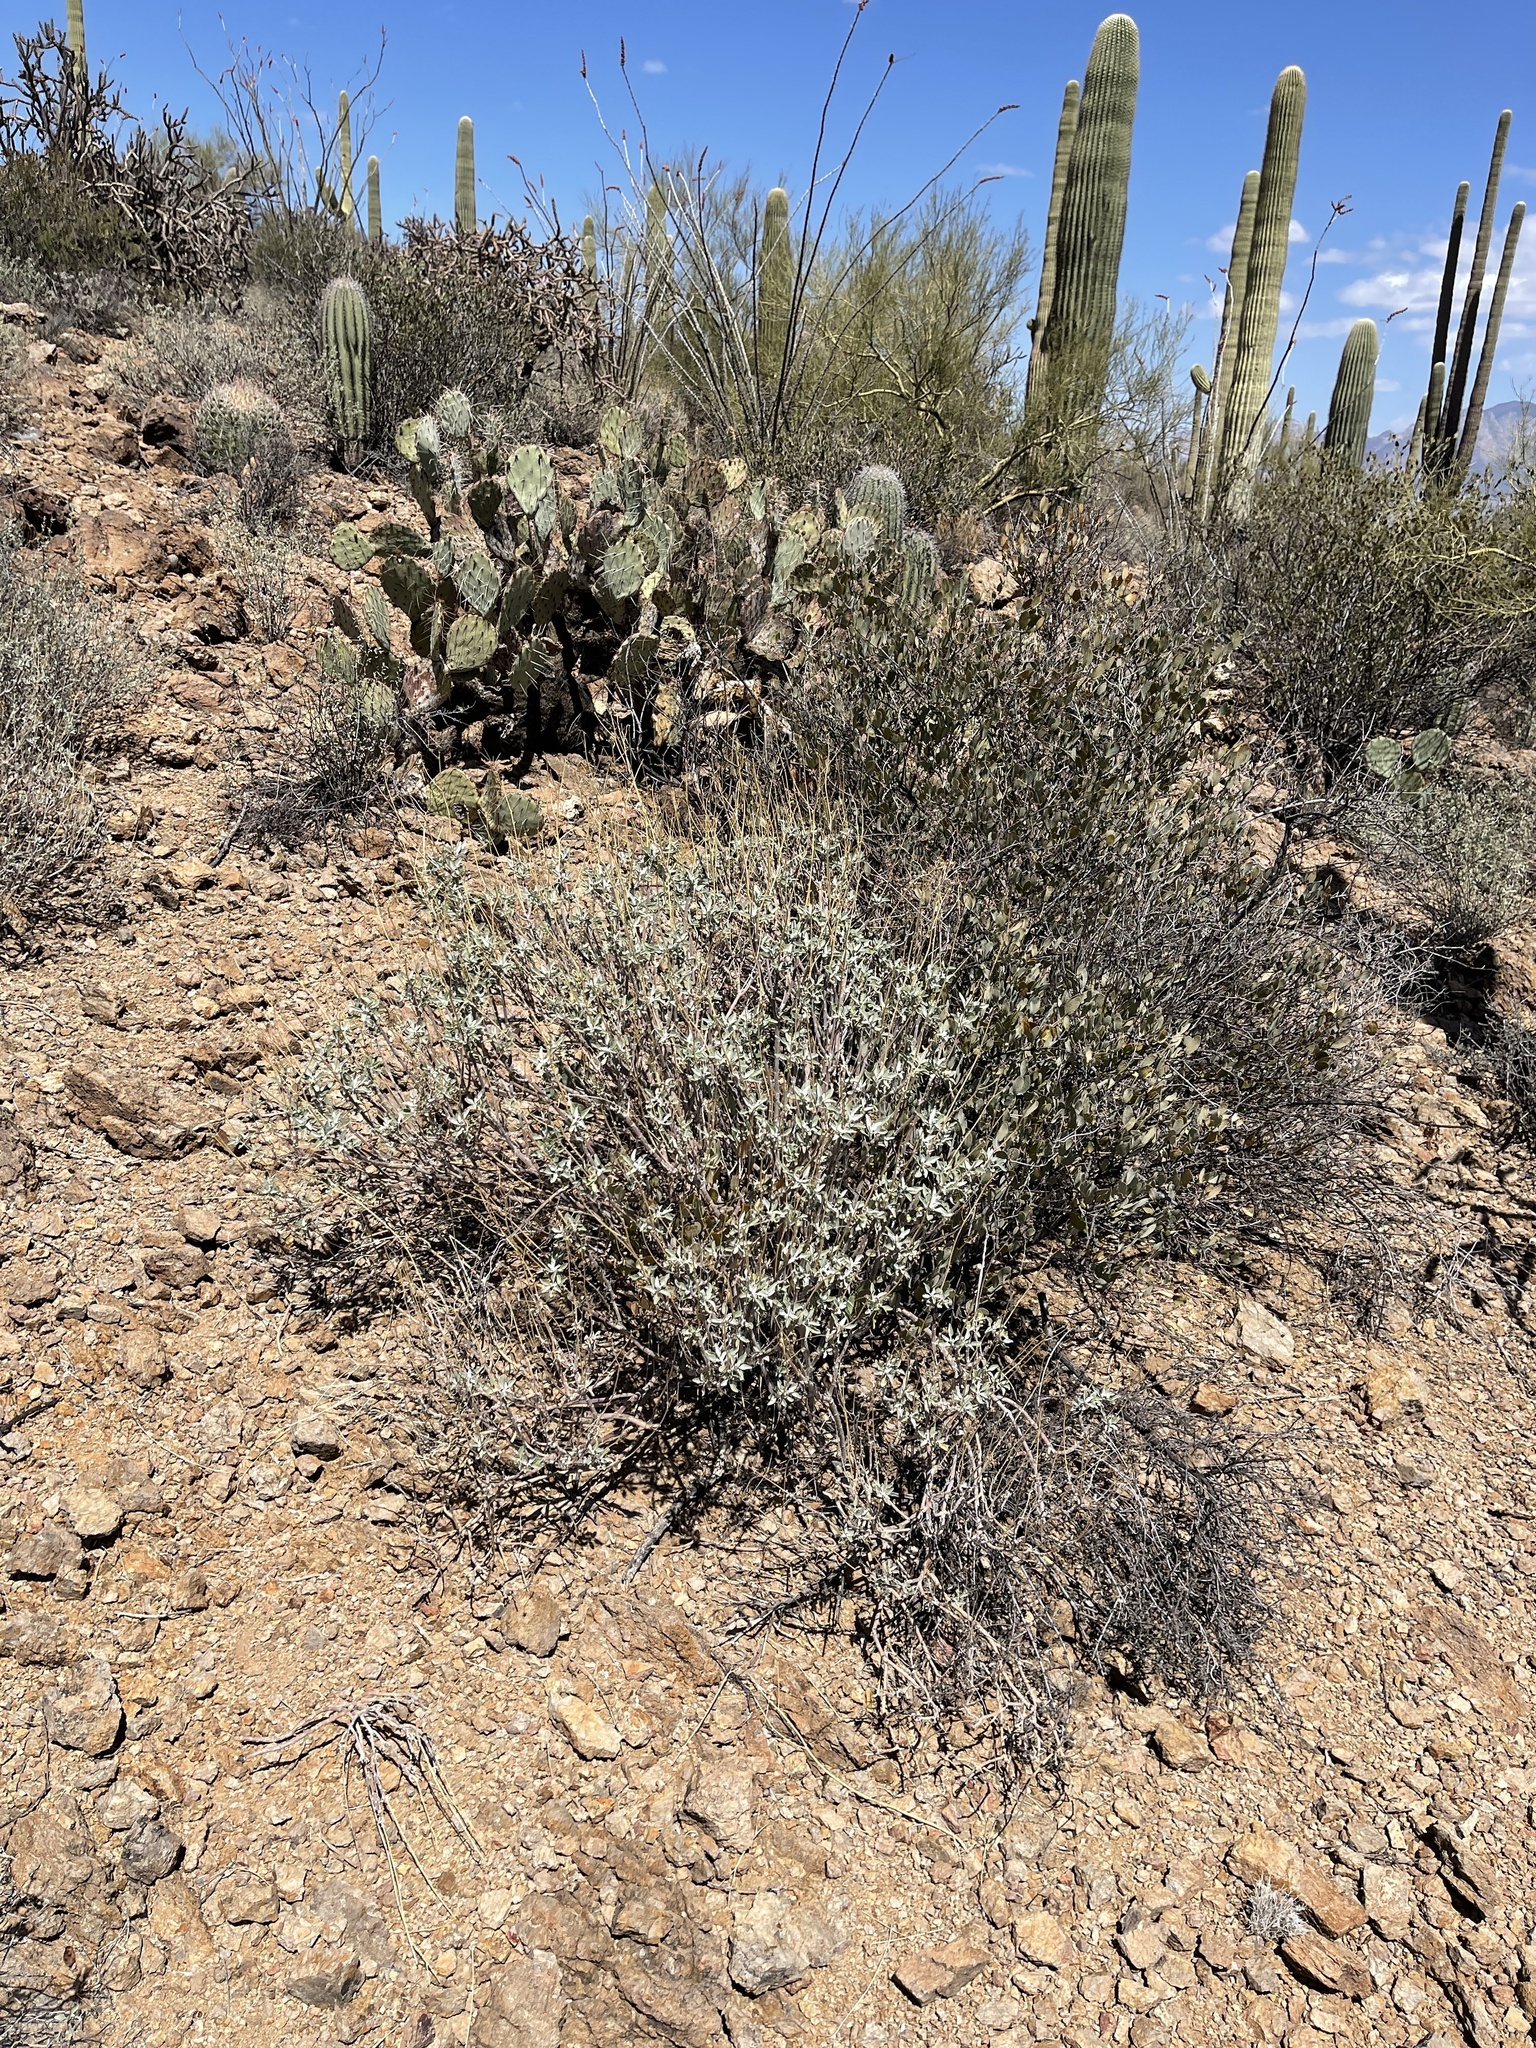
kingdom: Plantae
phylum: Tracheophyta
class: Magnoliopsida
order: Asterales
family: Asteraceae
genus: Encelia
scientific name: Encelia farinosa
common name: Brittlebush
